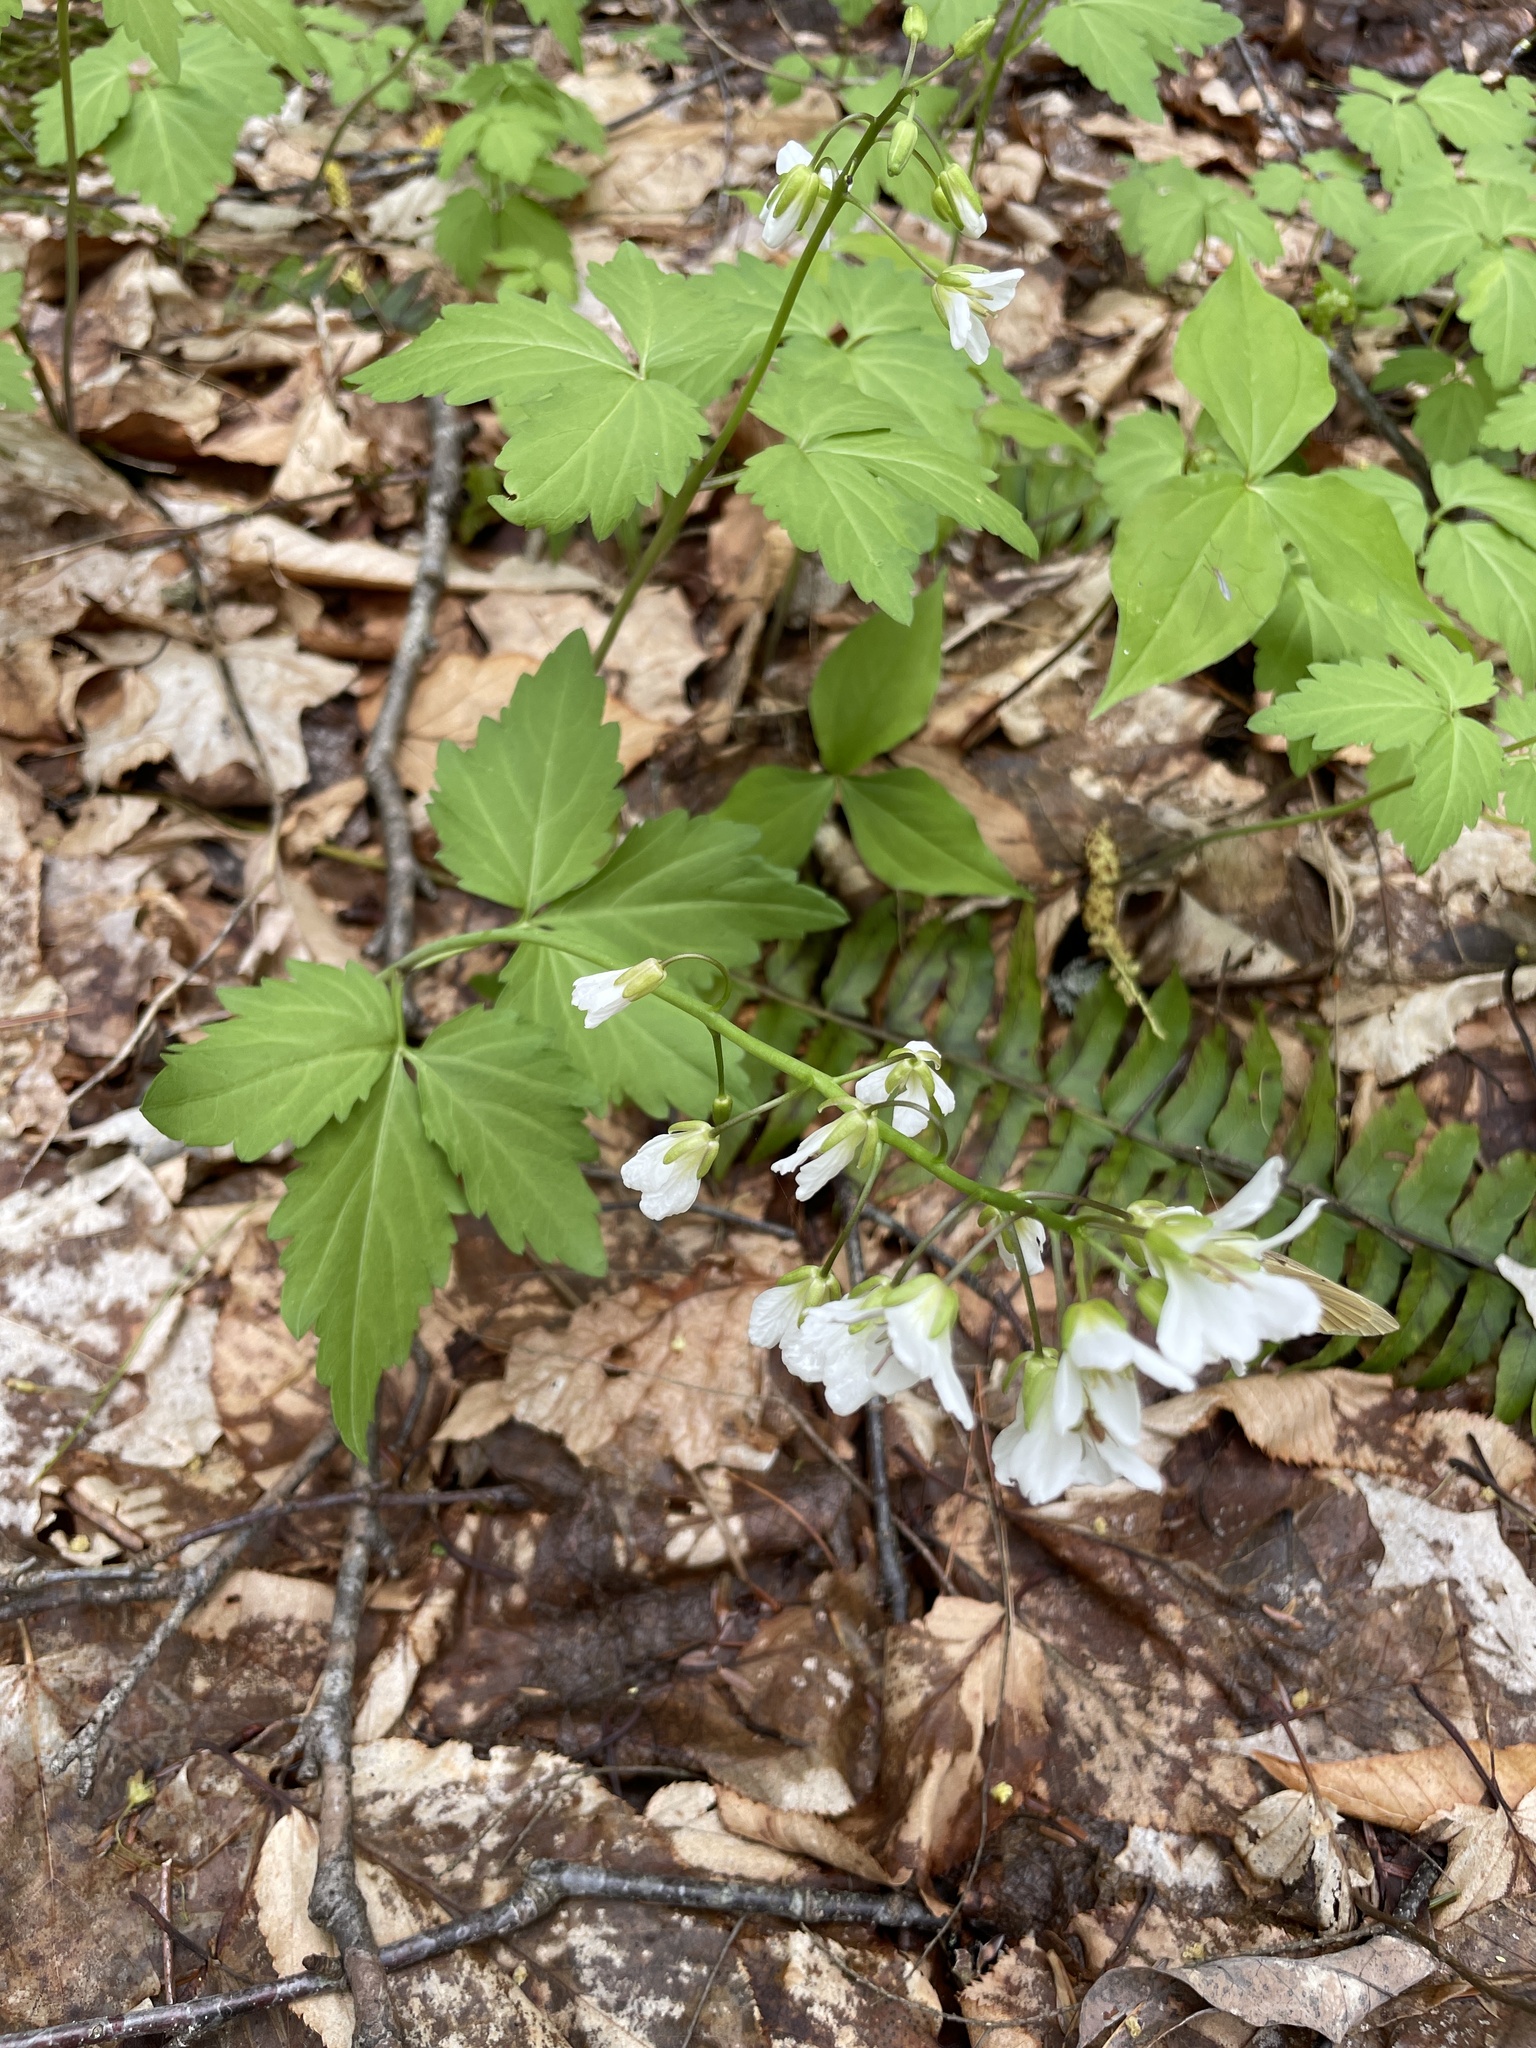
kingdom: Plantae
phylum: Tracheophyta
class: Magnoliopsida
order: Brassicales
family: Brassicaceae
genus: Cardamine
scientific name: Cardamine diphylla
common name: Broad-leaved toothwort
